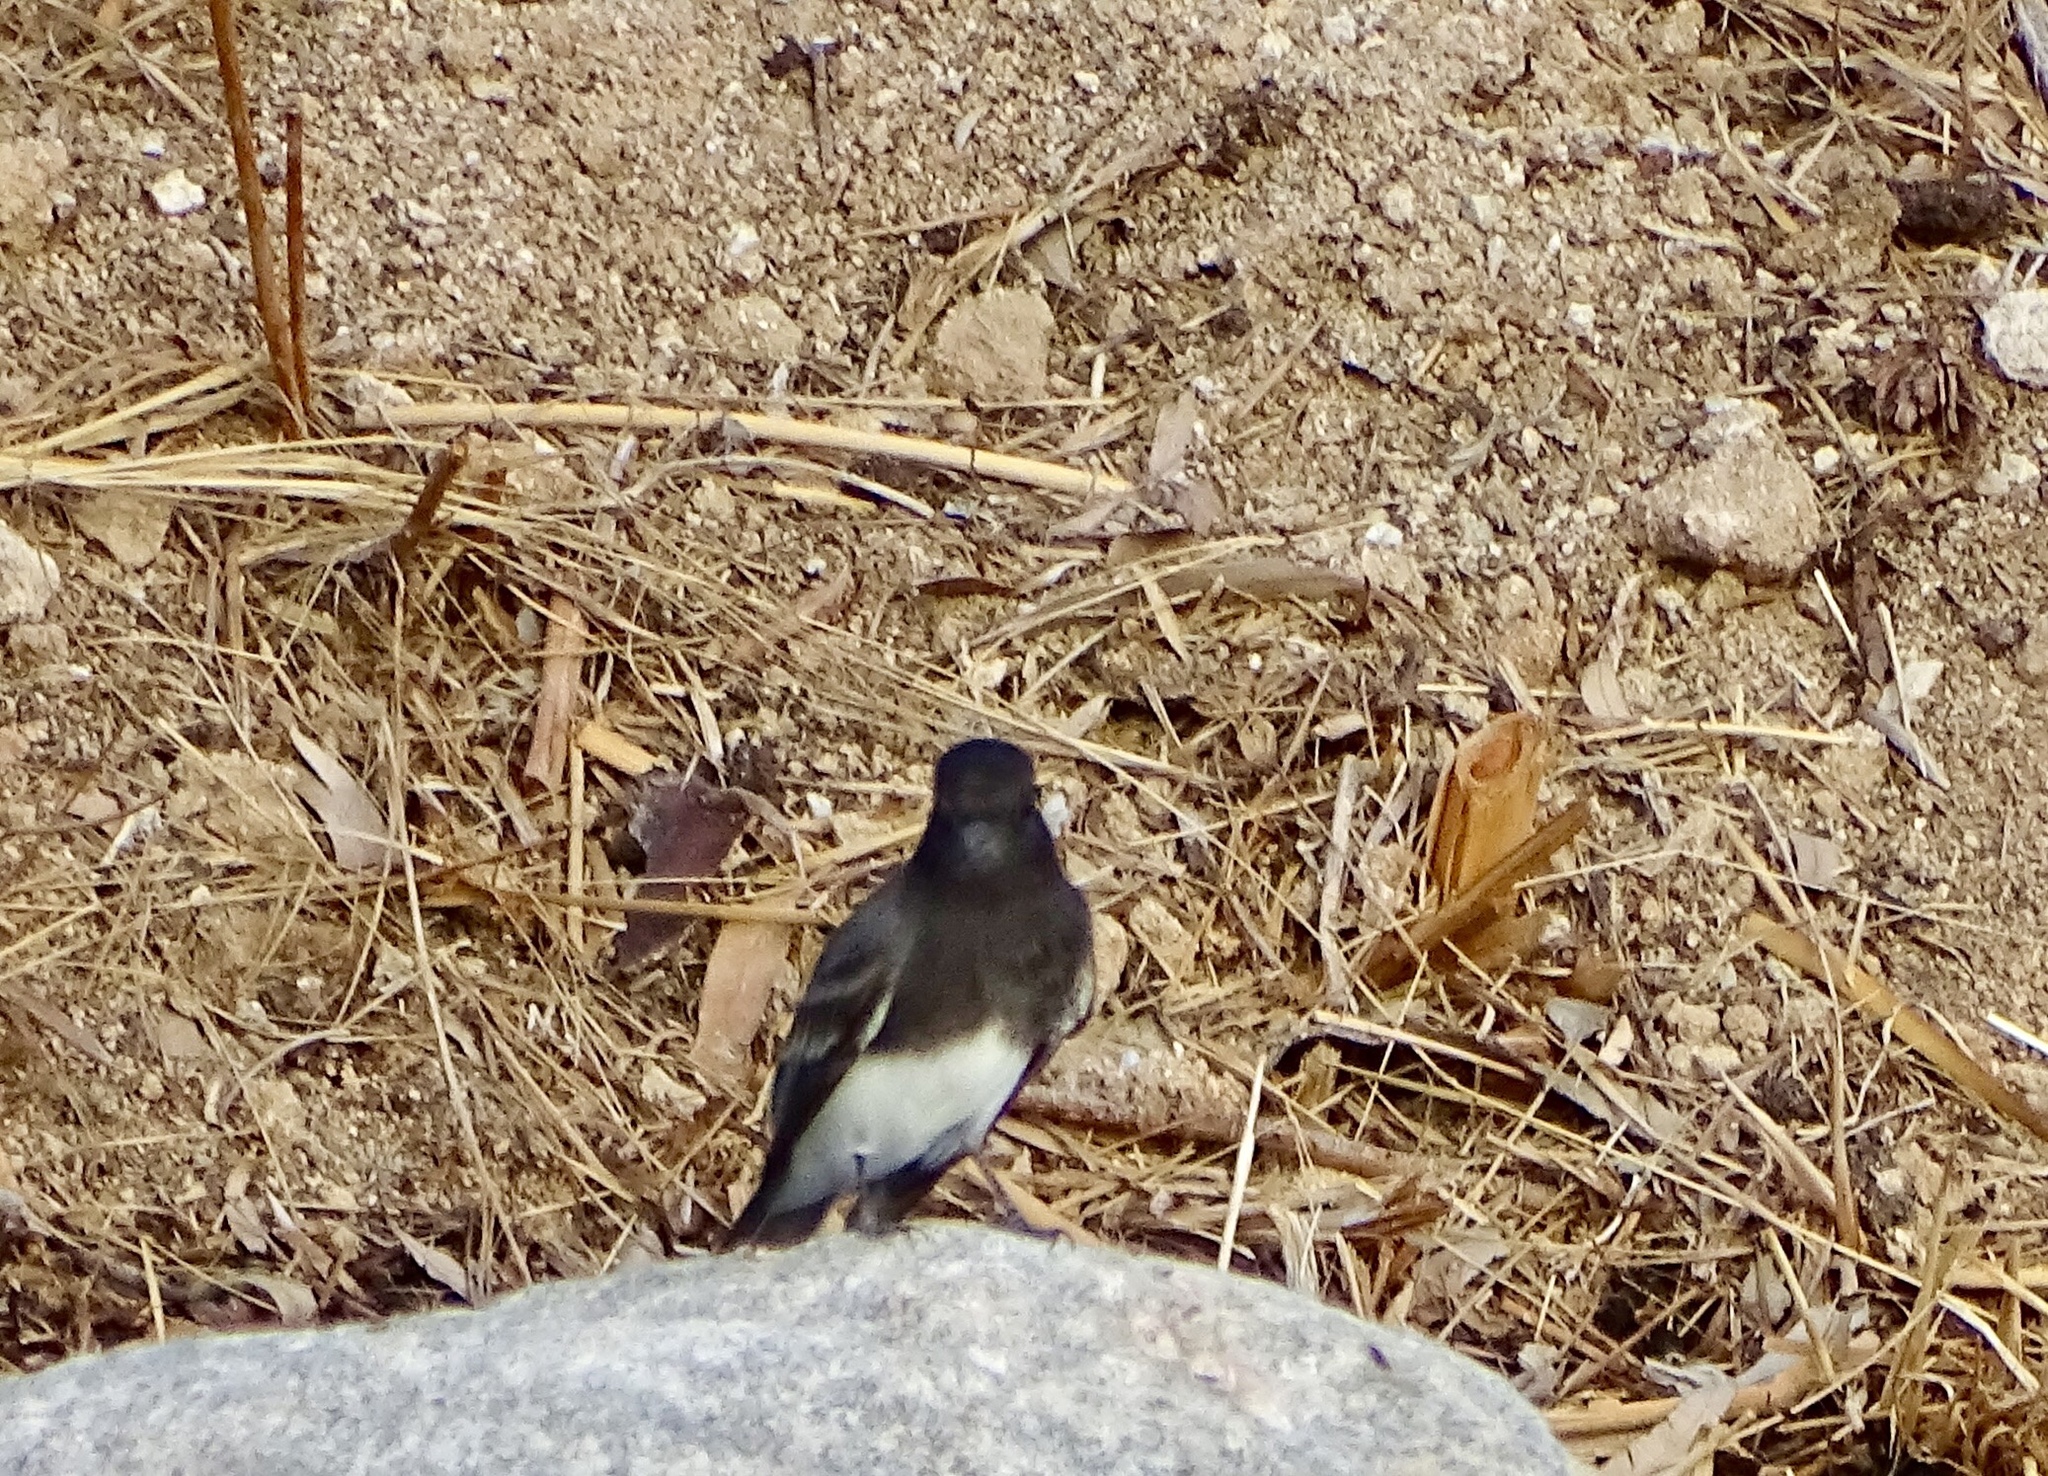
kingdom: Animalia
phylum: Chordata
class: Aves
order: Passeriformes
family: Tyrannidae
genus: Sayornis
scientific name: Sayornis nigricans
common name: Black phoebe
